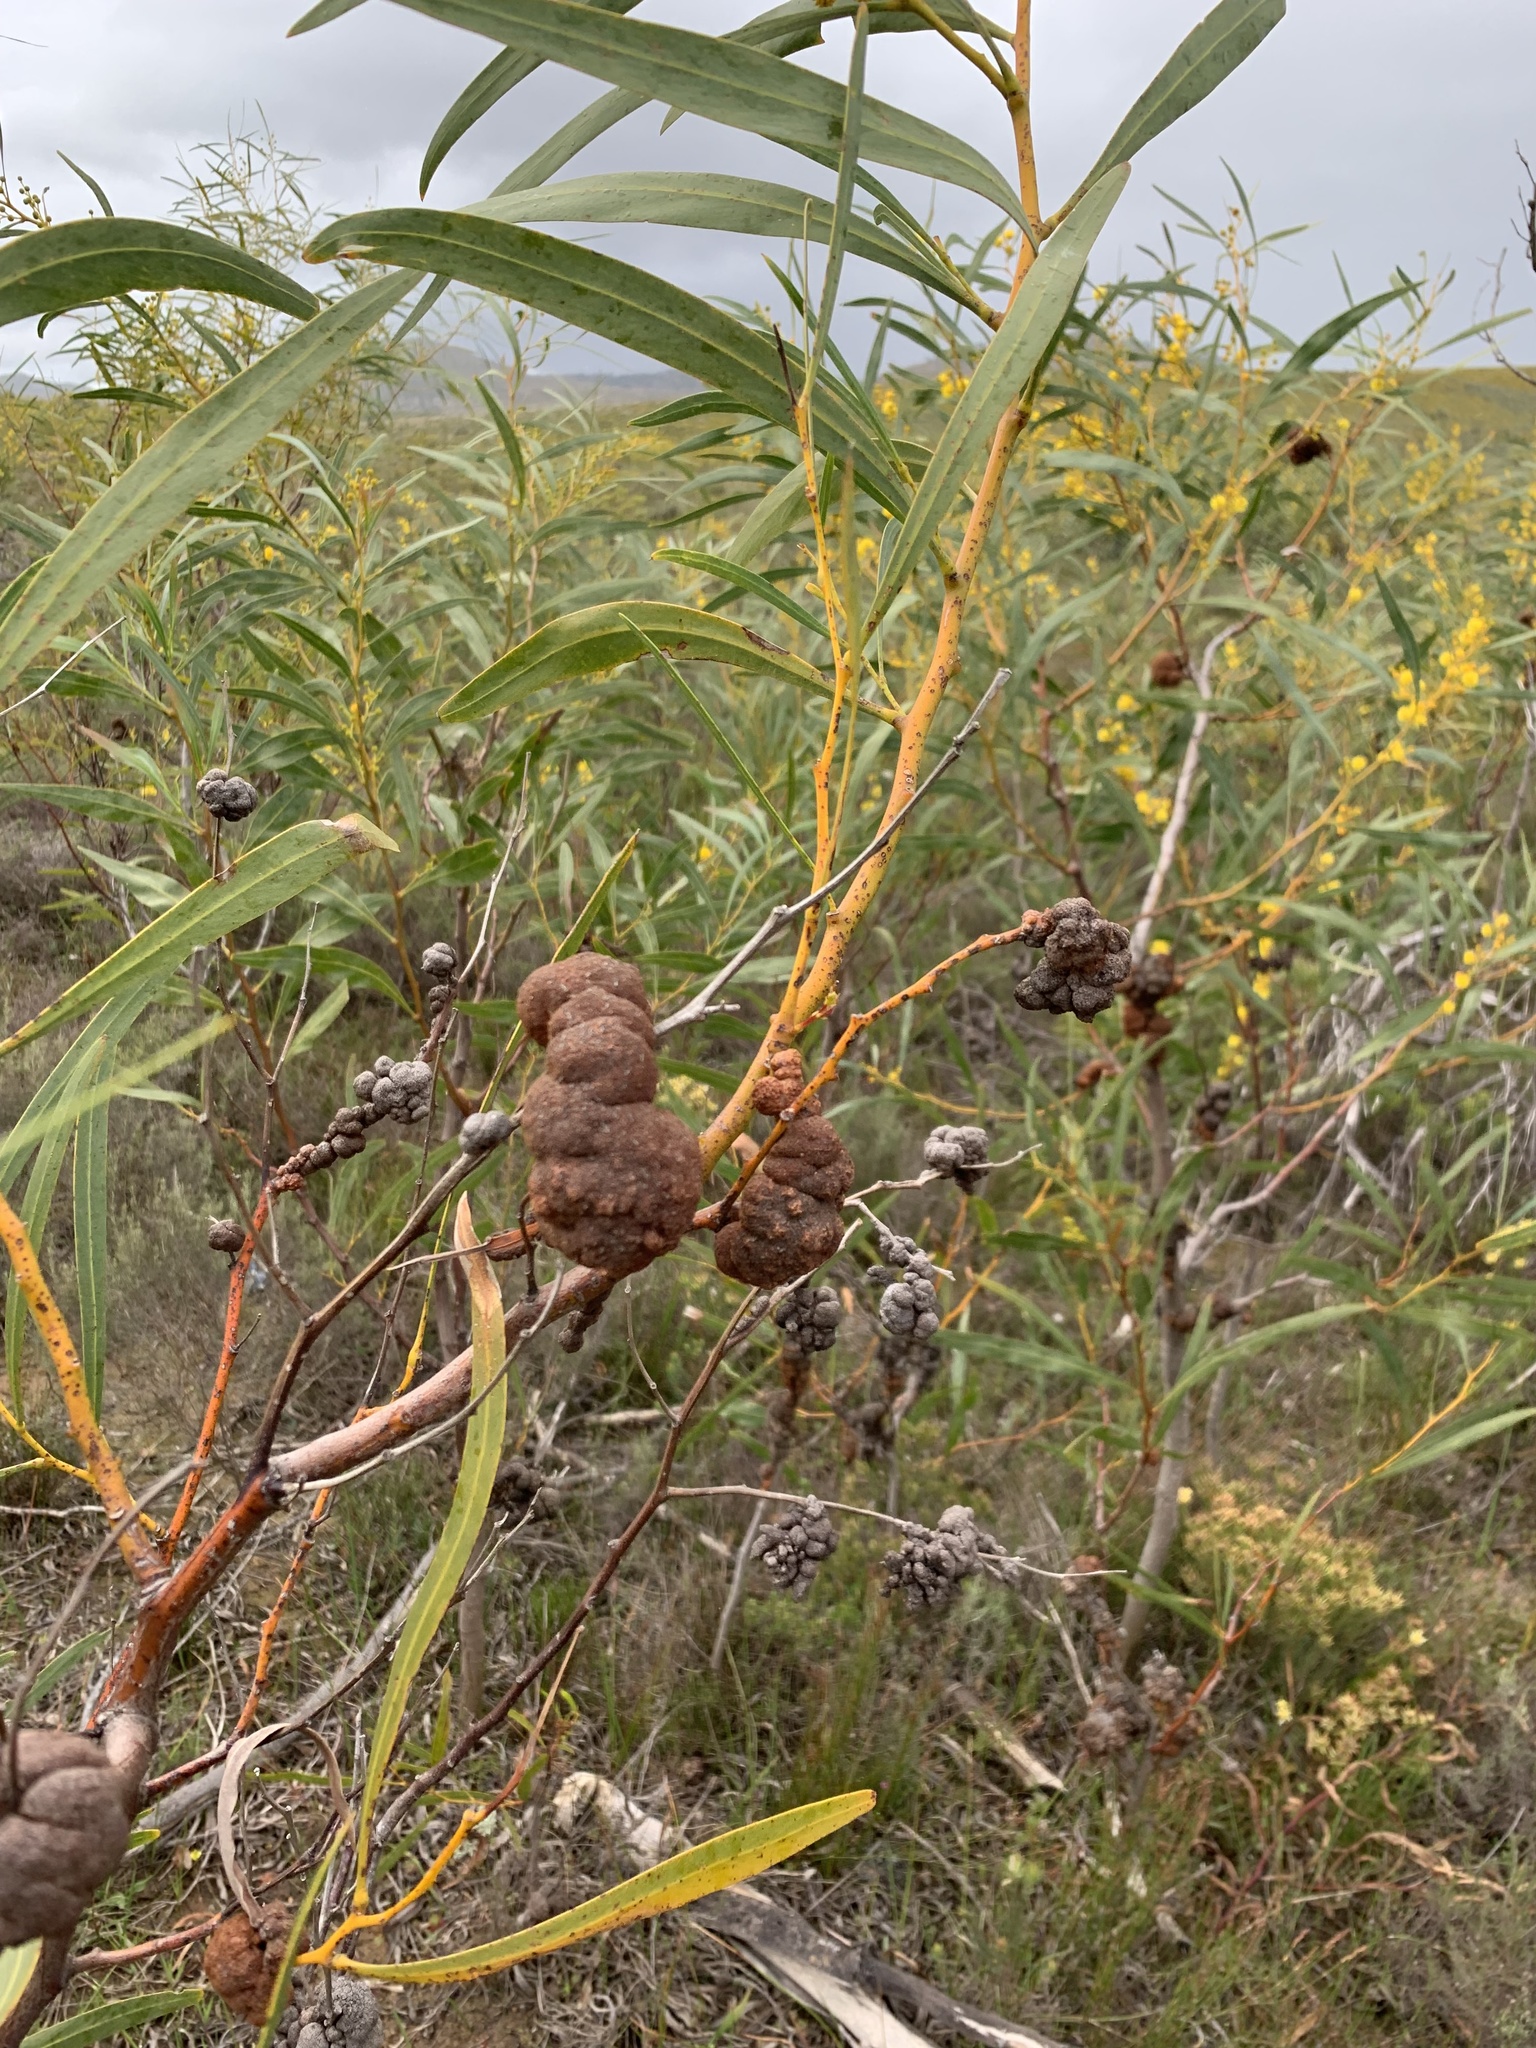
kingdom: Plantae
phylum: Tracheophyta
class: Magnoliopsida
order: Fabales
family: Fabaceae
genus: Acacia
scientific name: Acacia saligna
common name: Orange wattle
